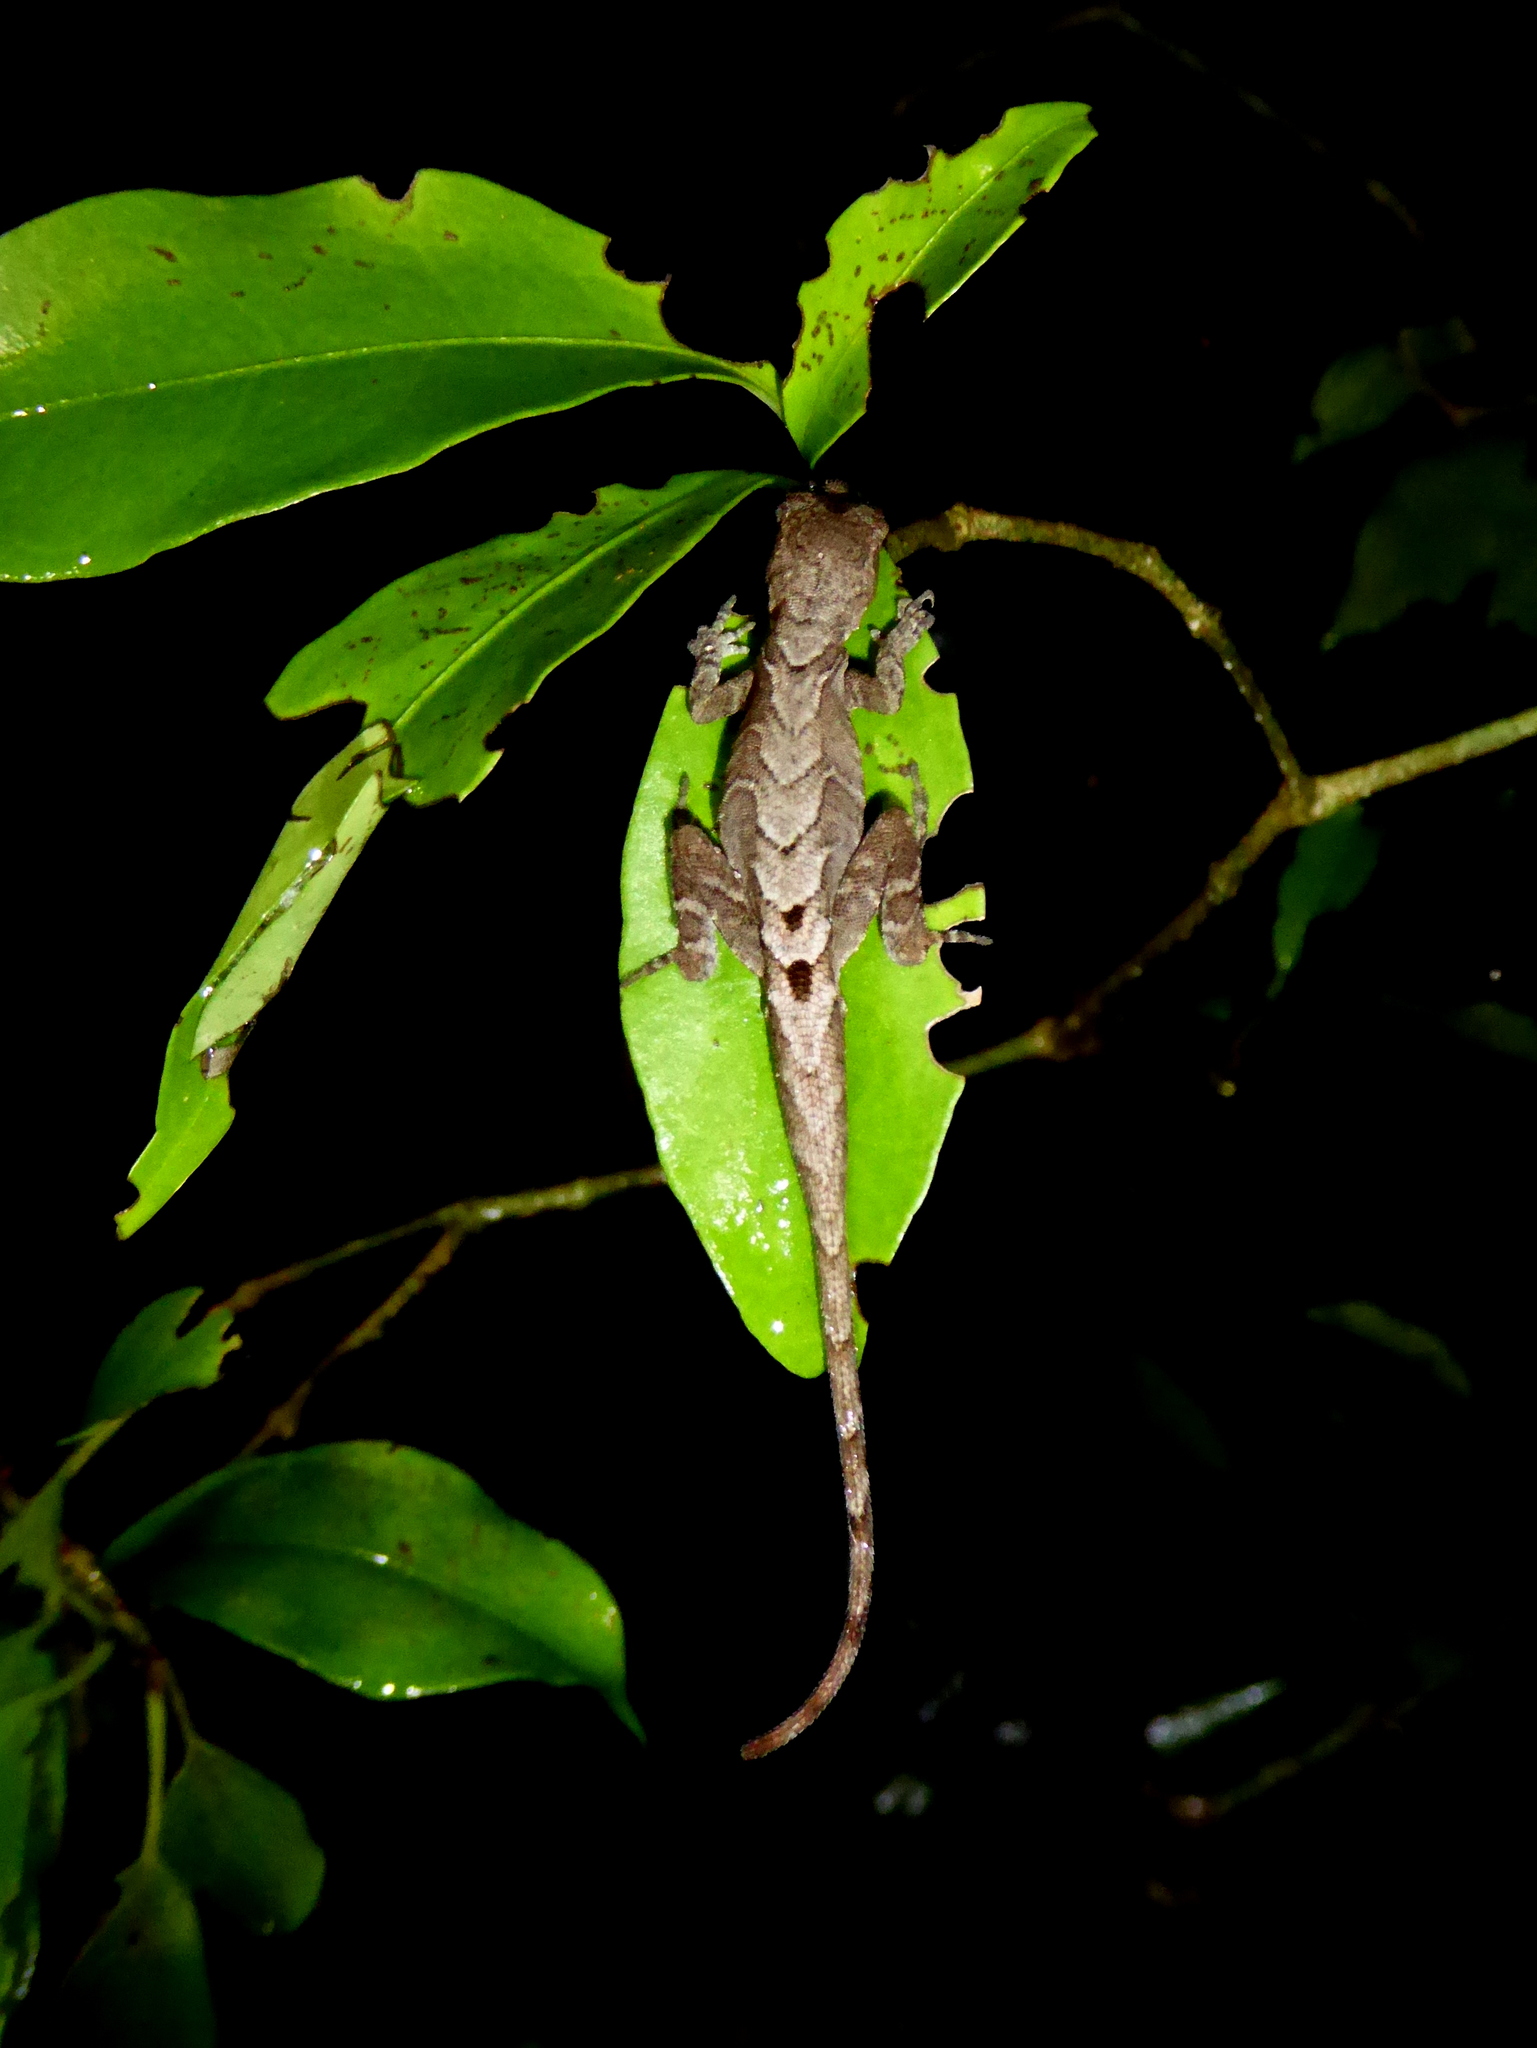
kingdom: Animalia
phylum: Chordata
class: Squamata
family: Dactyloidae
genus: Anolis
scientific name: Anolis humilis
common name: Humble anole
